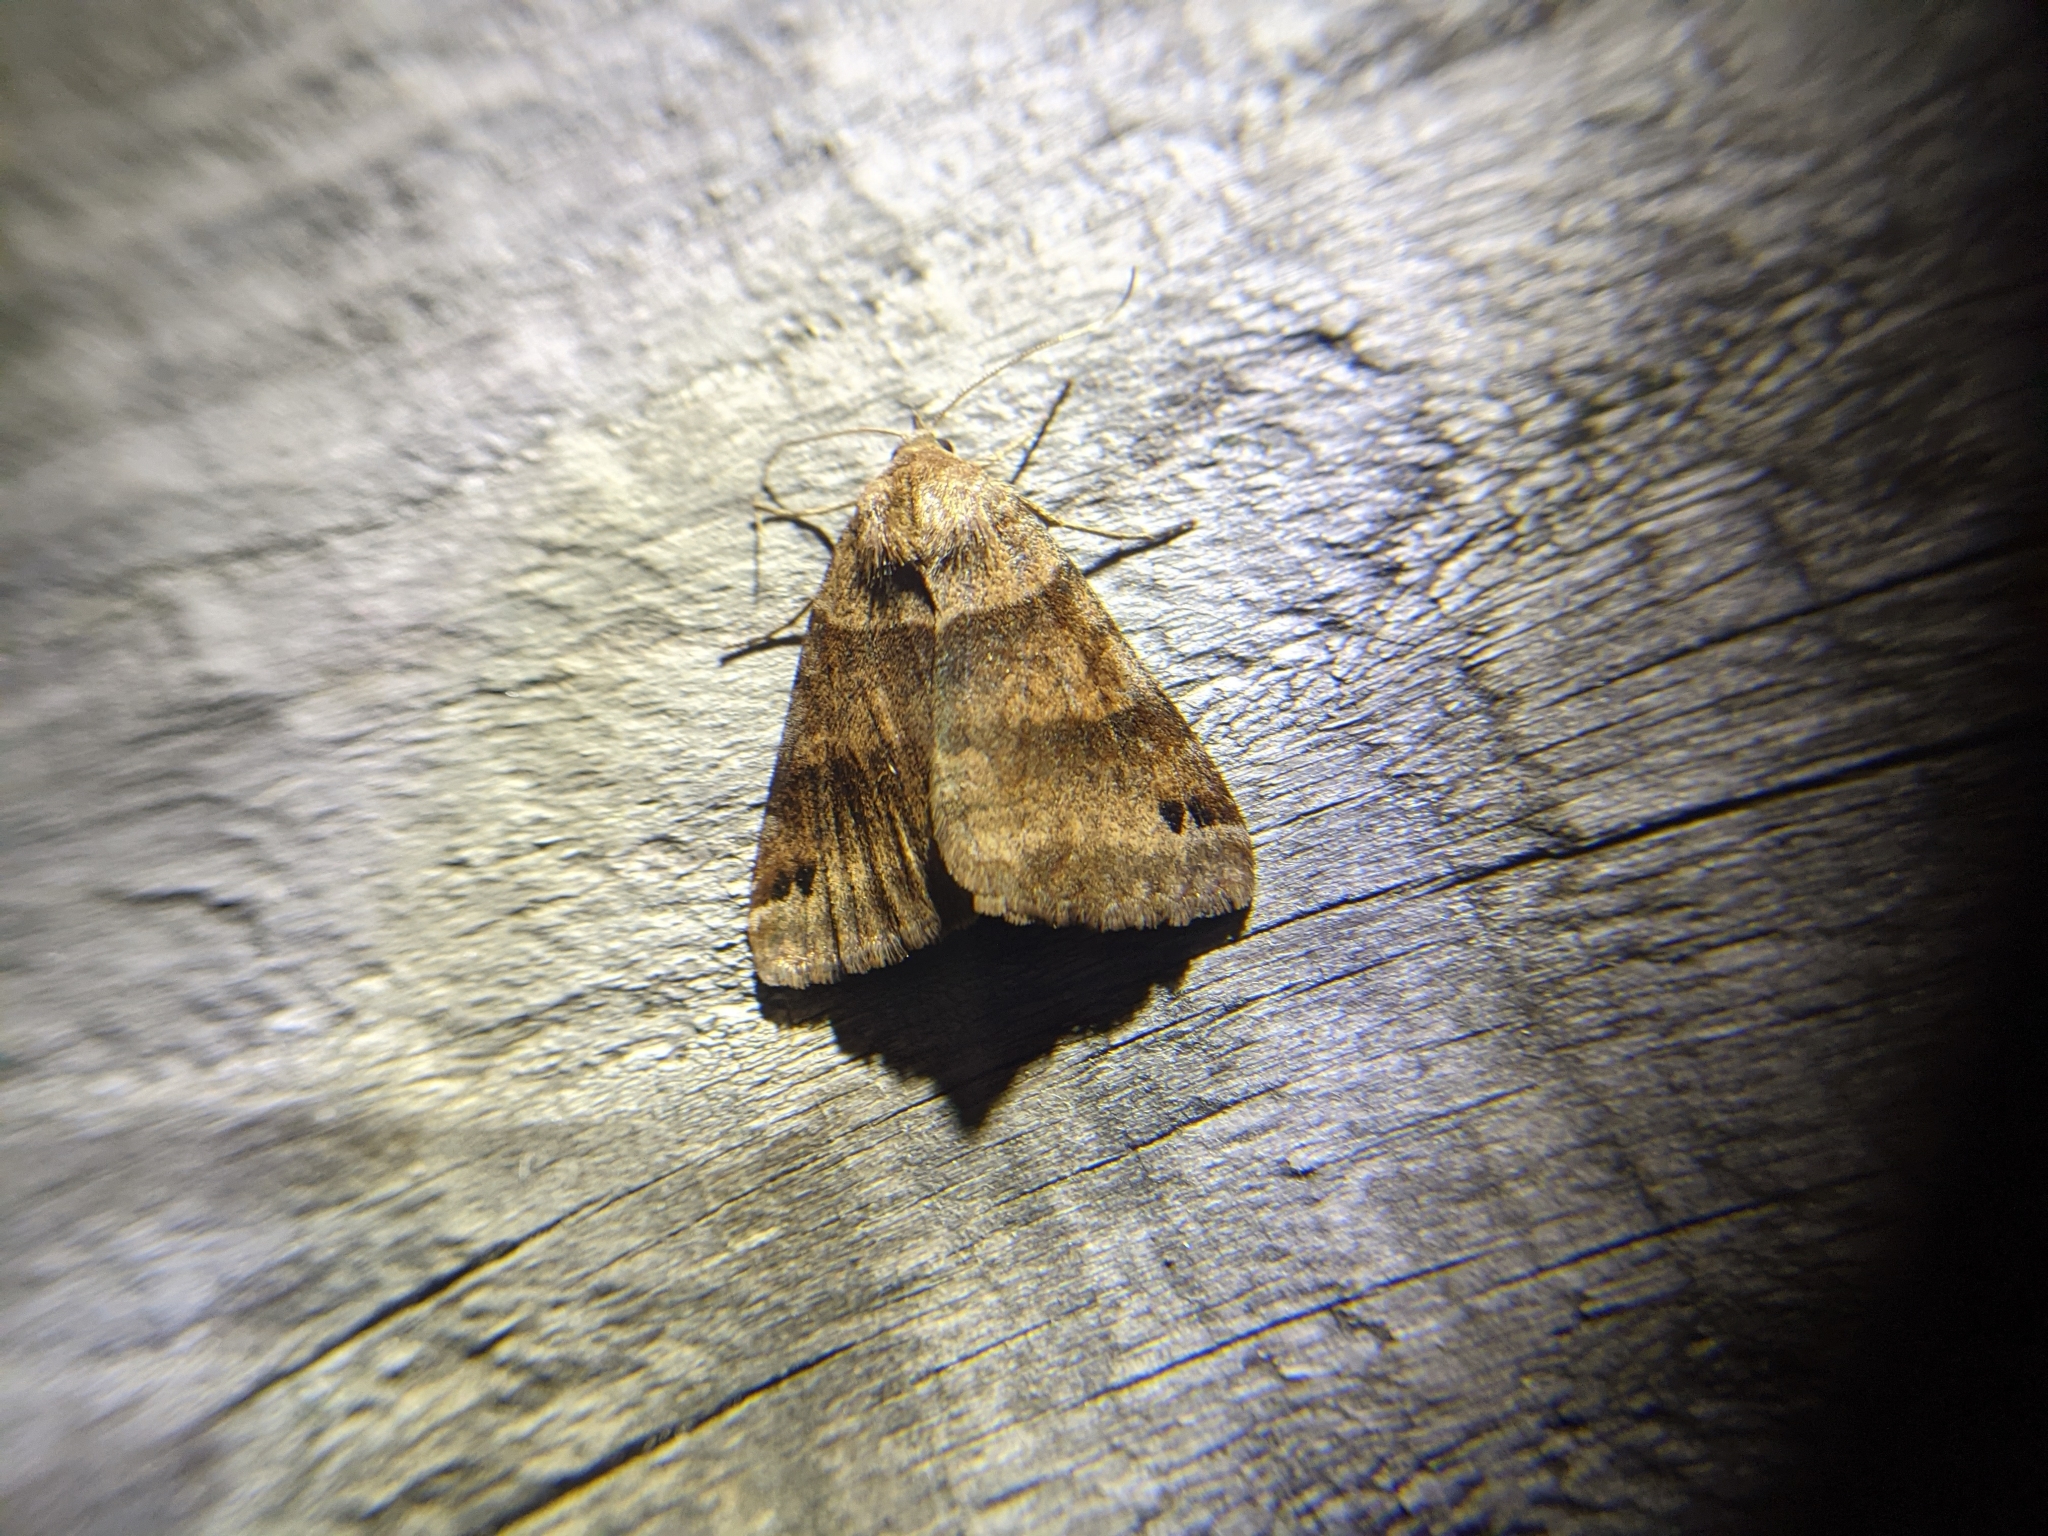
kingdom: Animalia
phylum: Arthropoda
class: Insecta
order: Lepidoptera
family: Erebidae
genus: Caenurgina
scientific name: Caenurgina crassiuscula
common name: Double-barred
